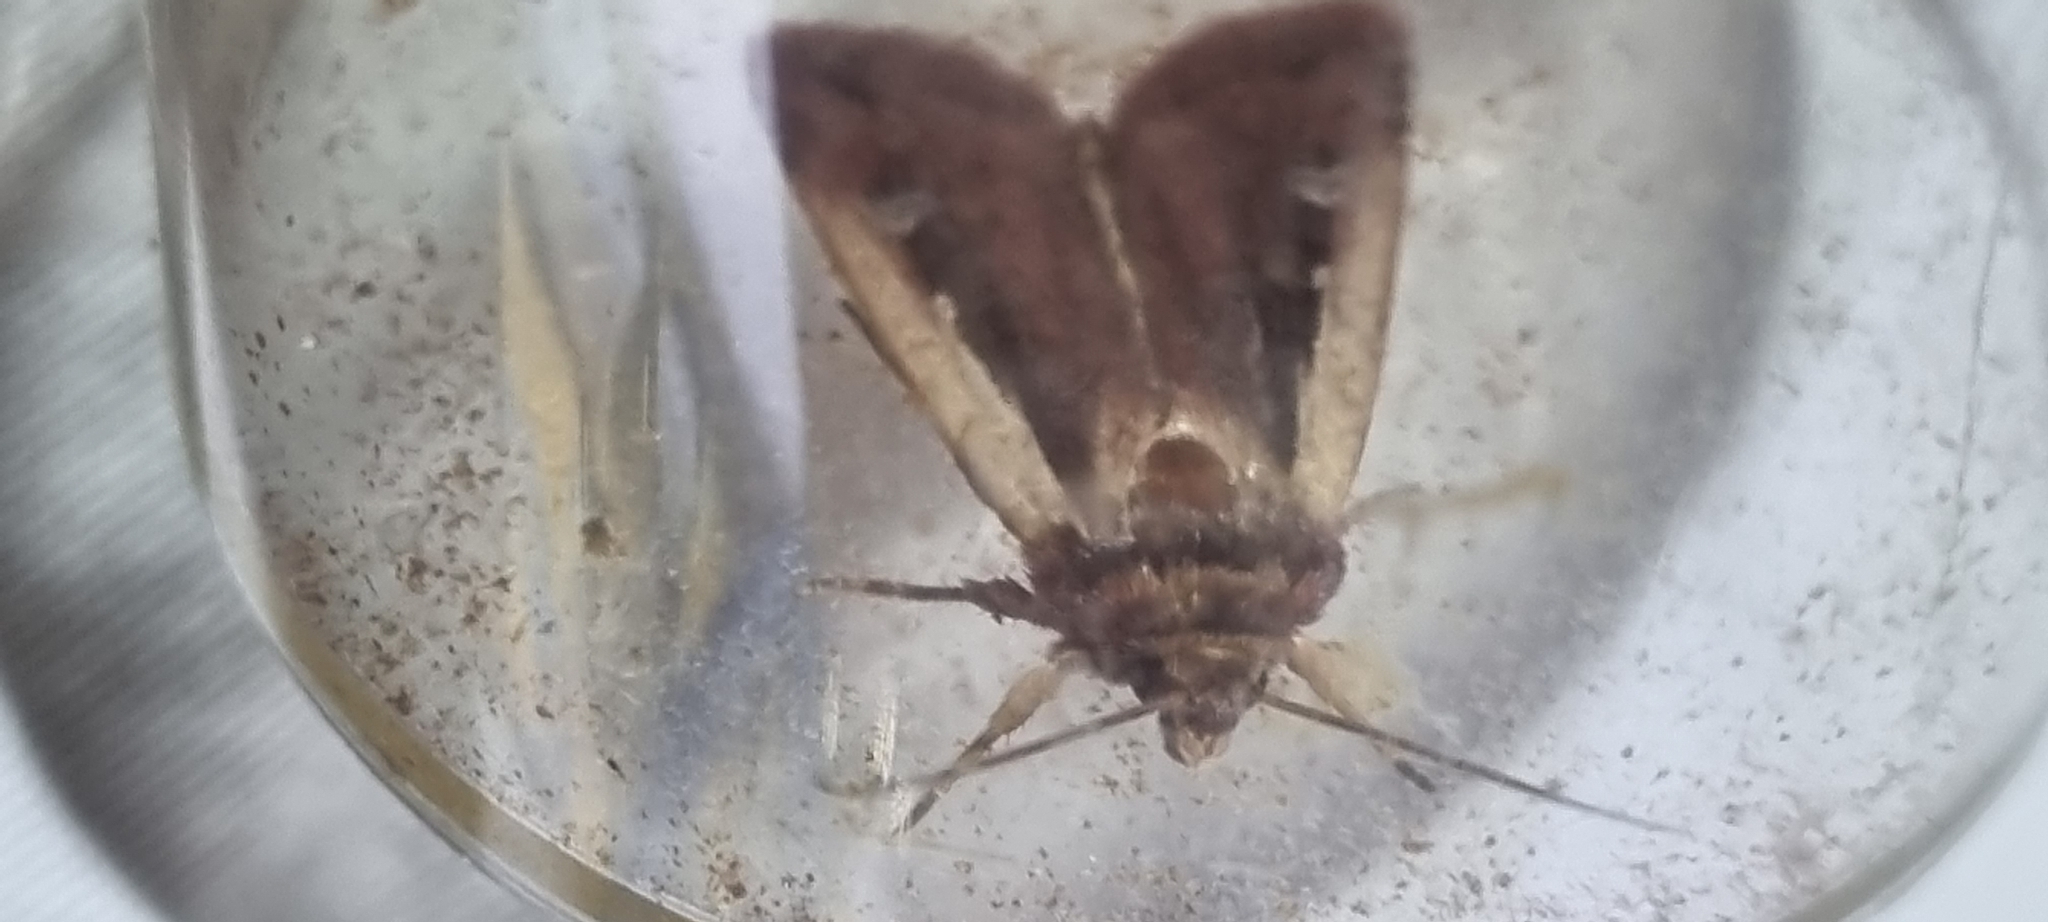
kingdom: Animalia
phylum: Arthropoda
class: Insecta
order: Lepidoptera
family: Noctuidae
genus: Ochropleura
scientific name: Ochropleura plecta
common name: Flame shoulder
